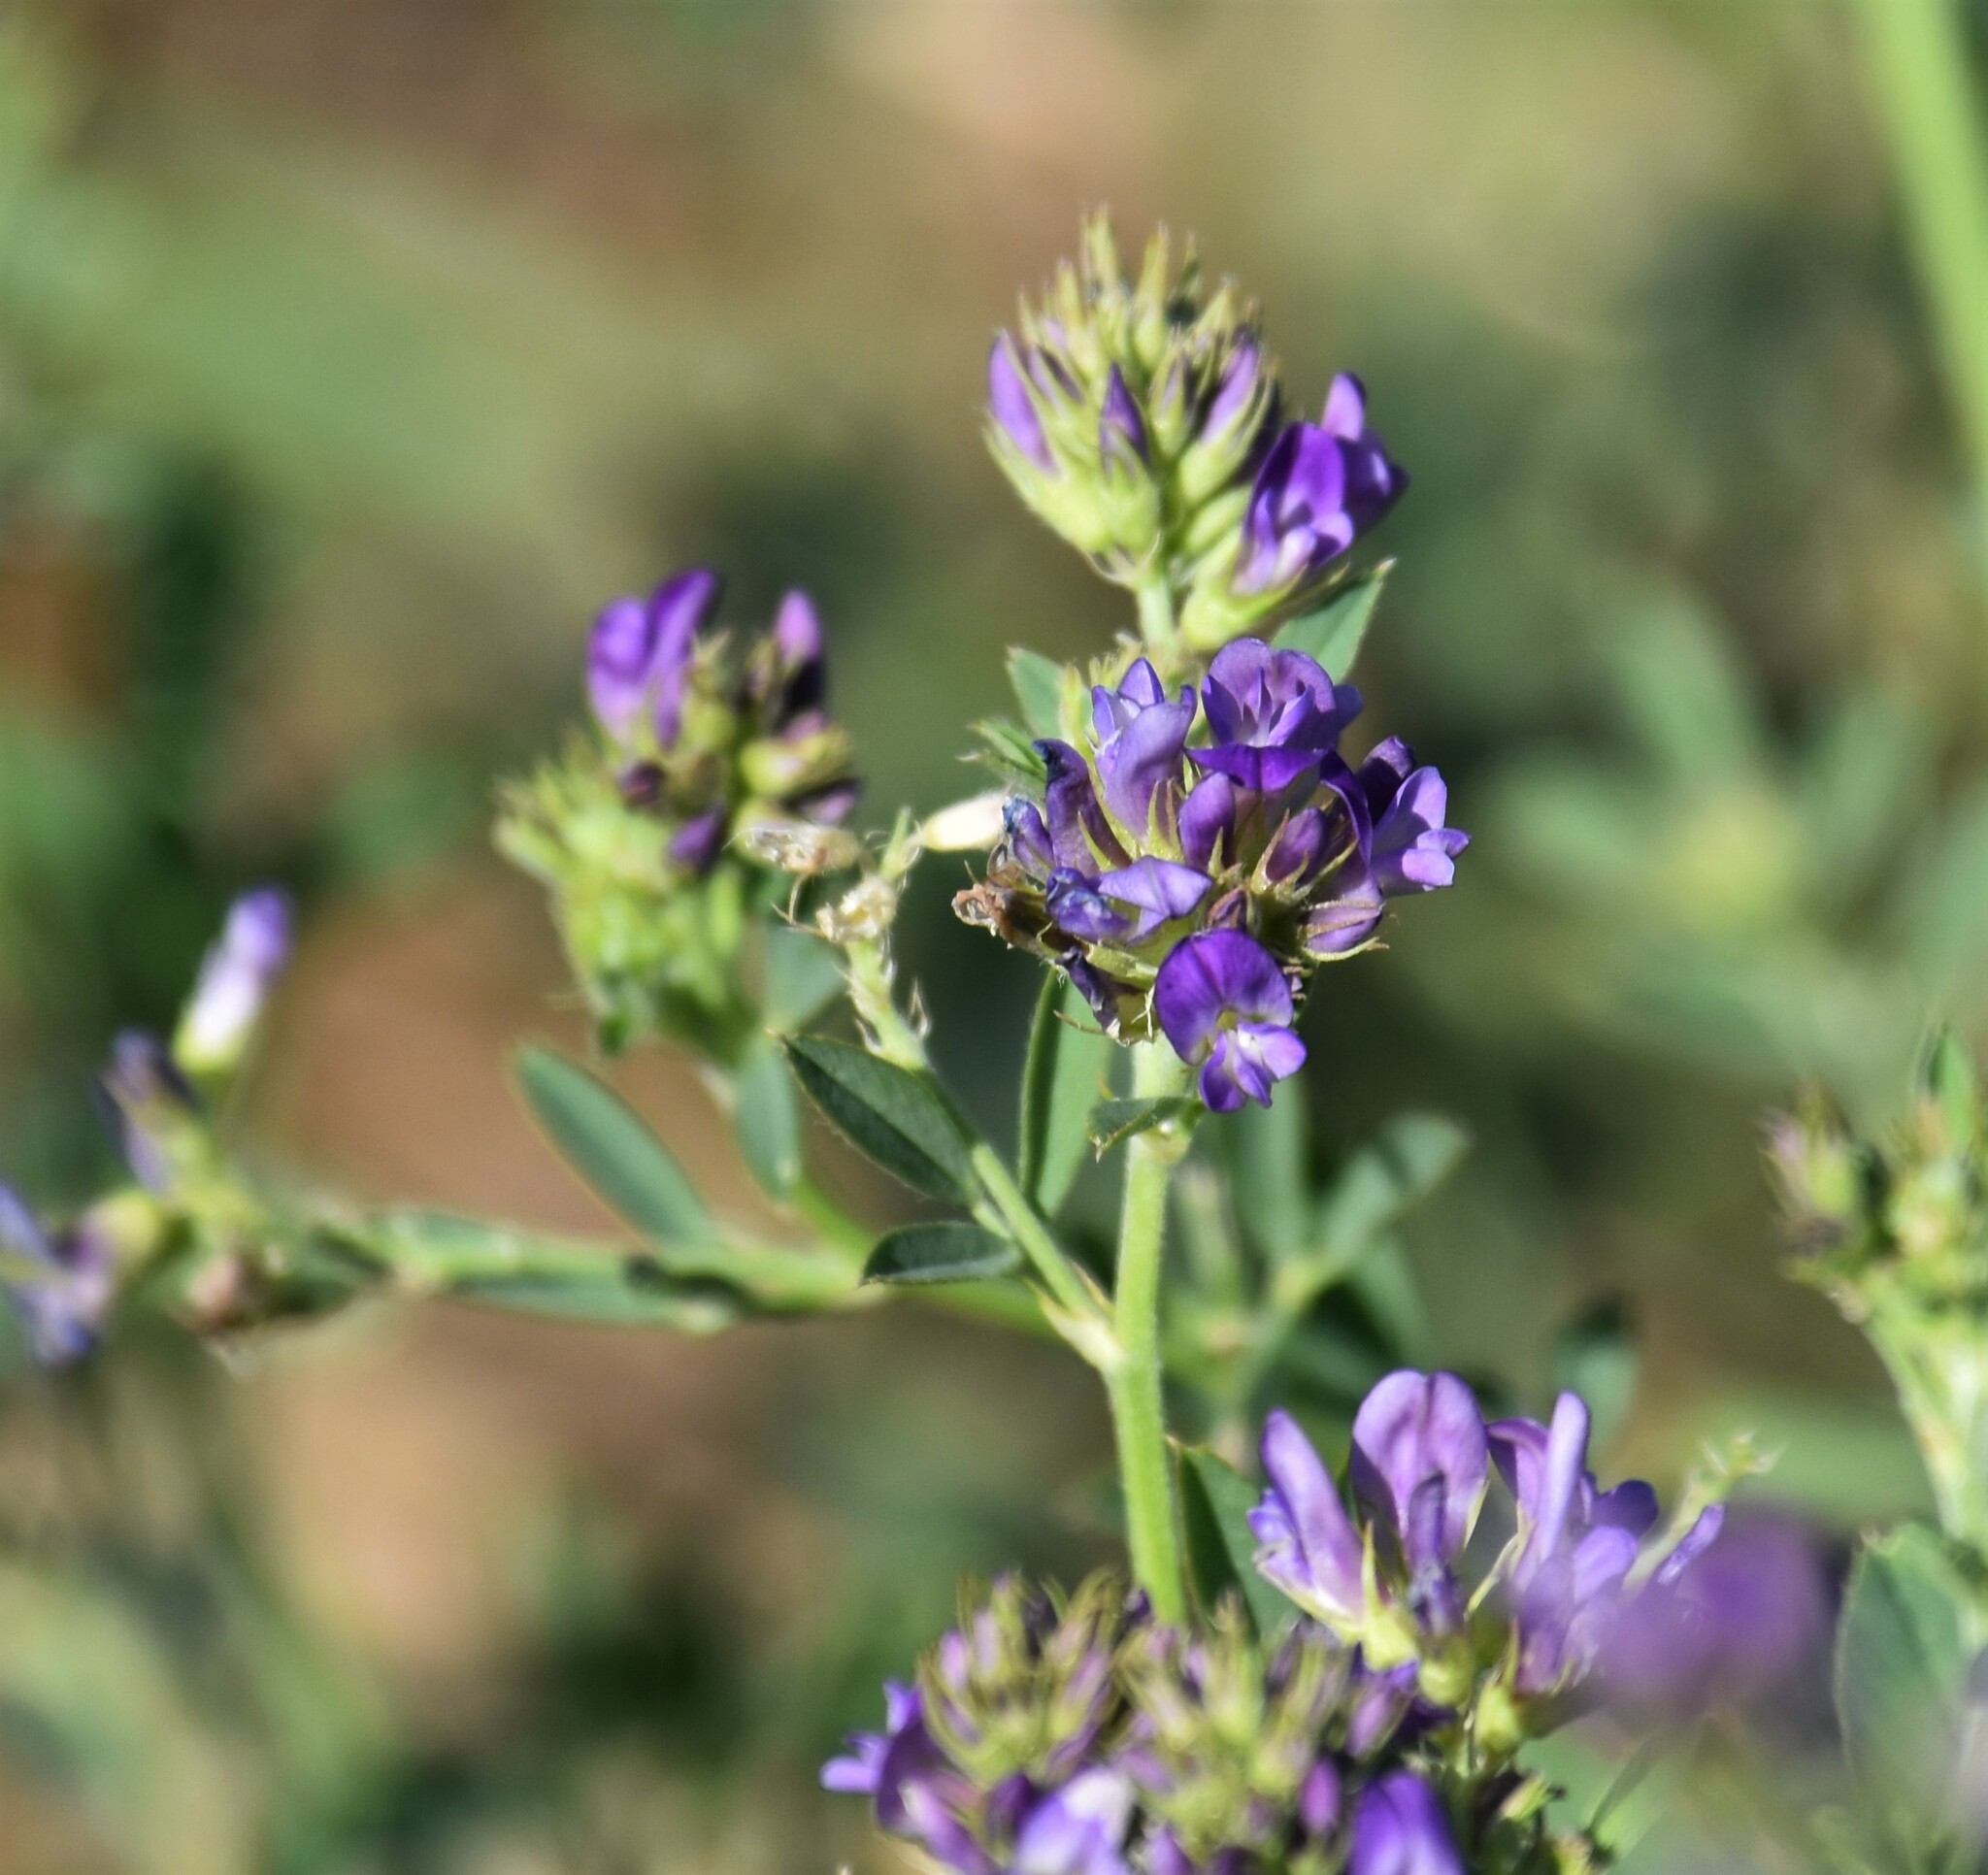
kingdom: Plantae
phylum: Tracheophyta
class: Magnoliopsida
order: Fabales
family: Fabaceae
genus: Medicago
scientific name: Medicago sativa
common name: Alfalfa
